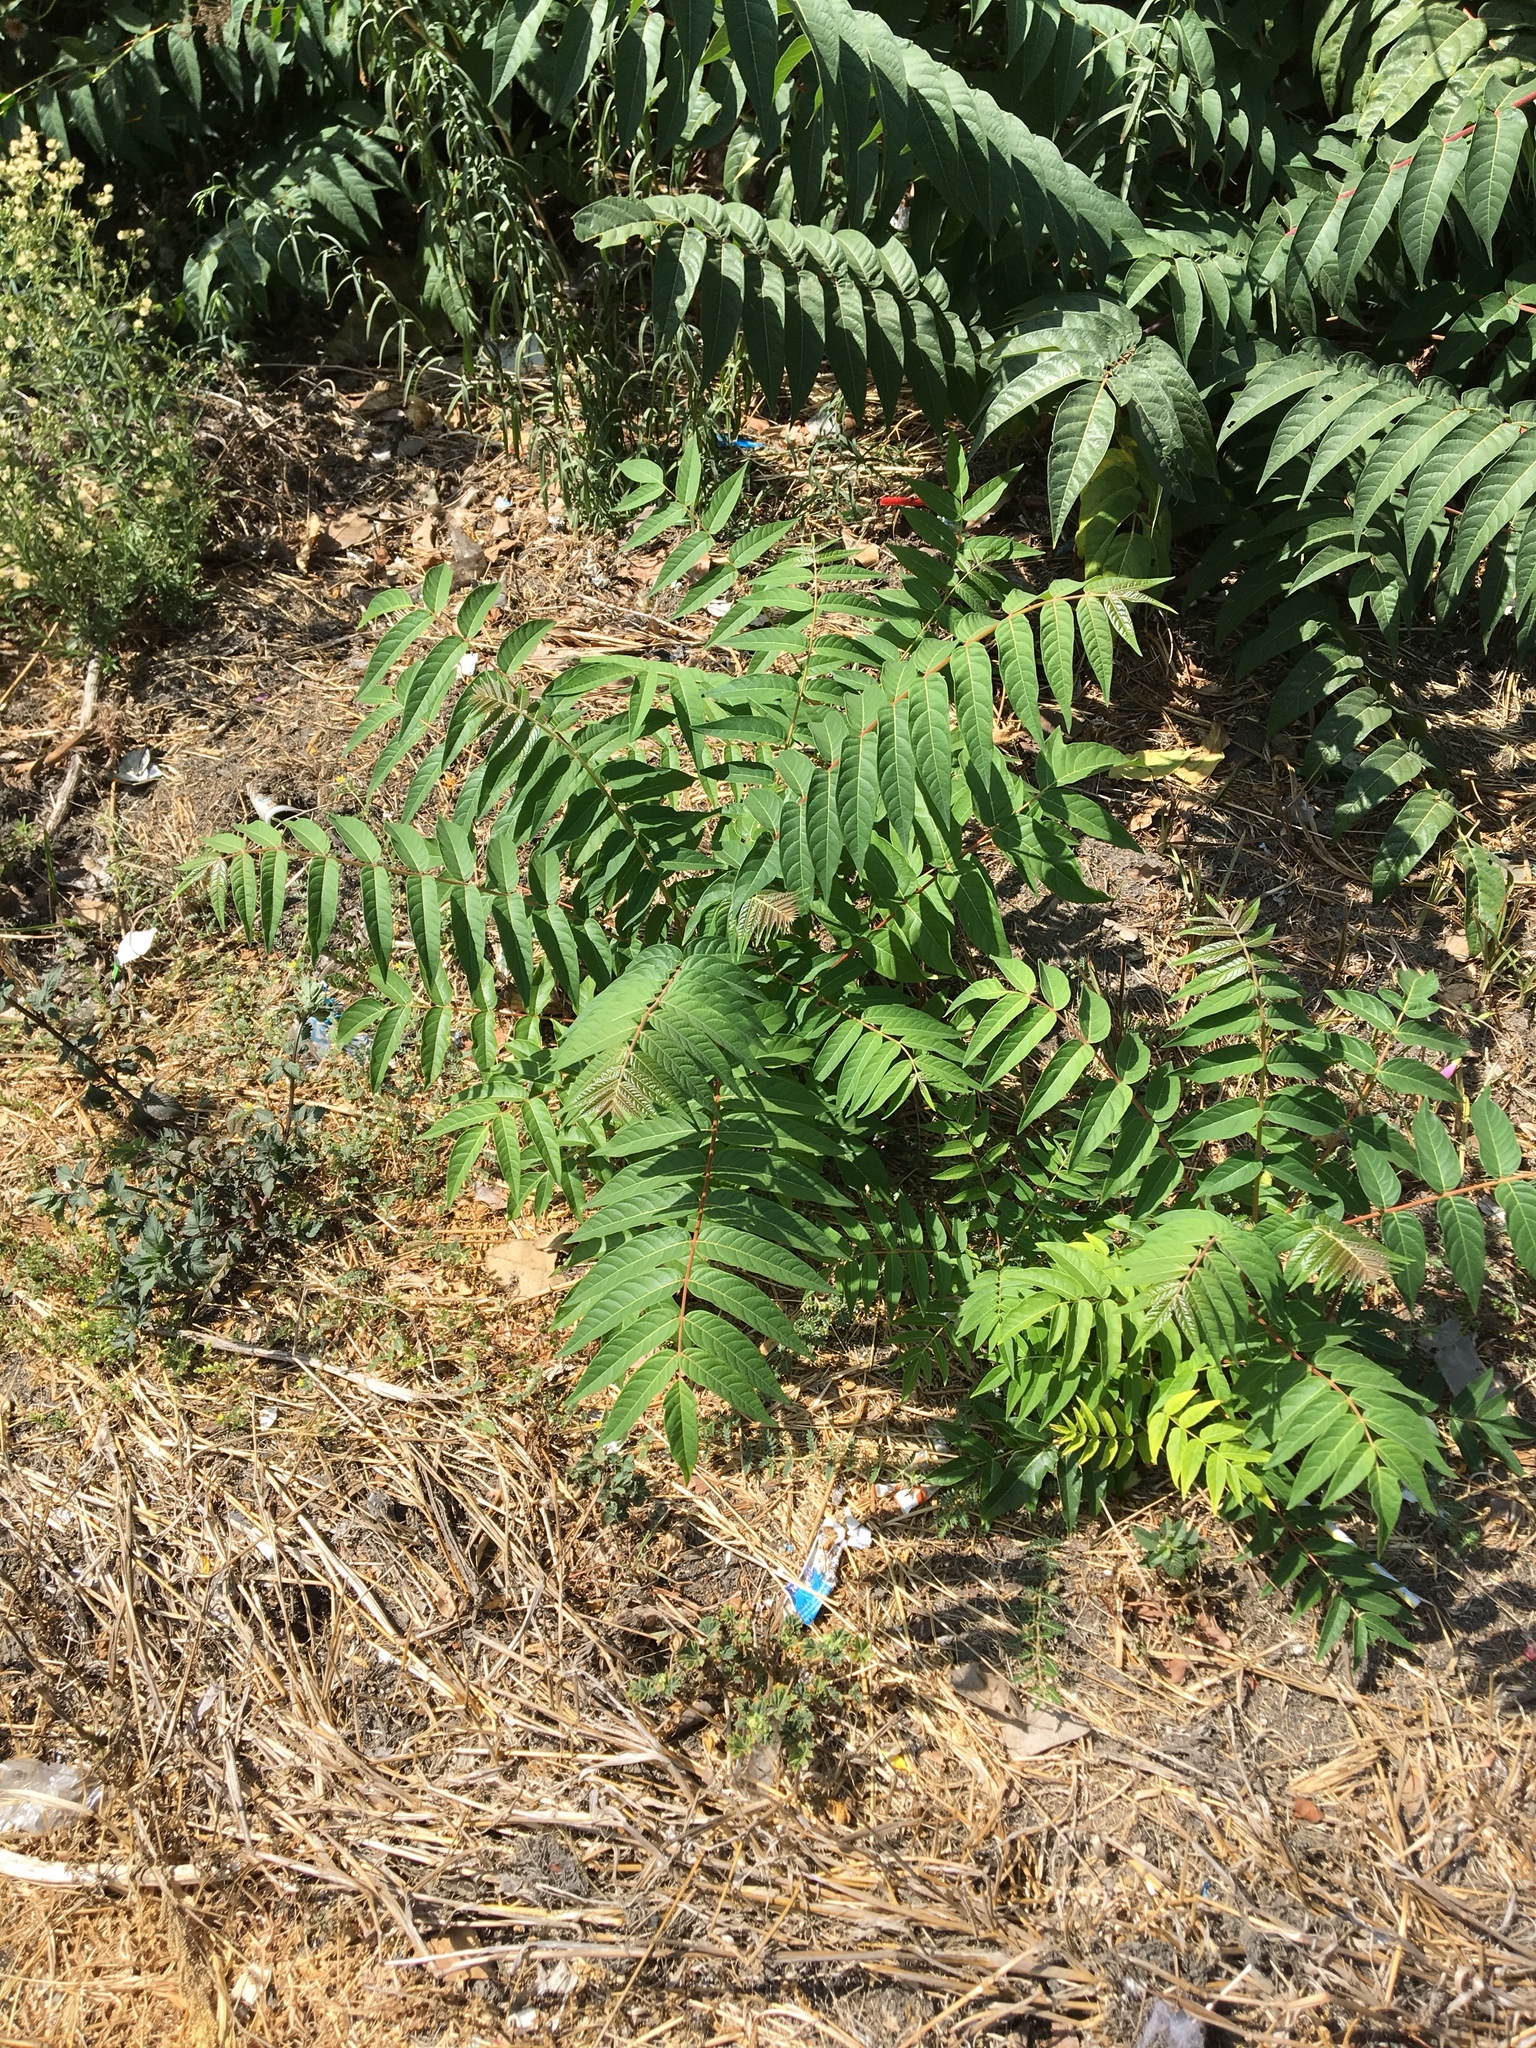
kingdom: Plantae
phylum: Tracheophyta
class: Magnoliopsida
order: Sapindales
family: Simaroubaceae
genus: Ailanthus
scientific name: Ailanthus altissima
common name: Tree-of-heaven
